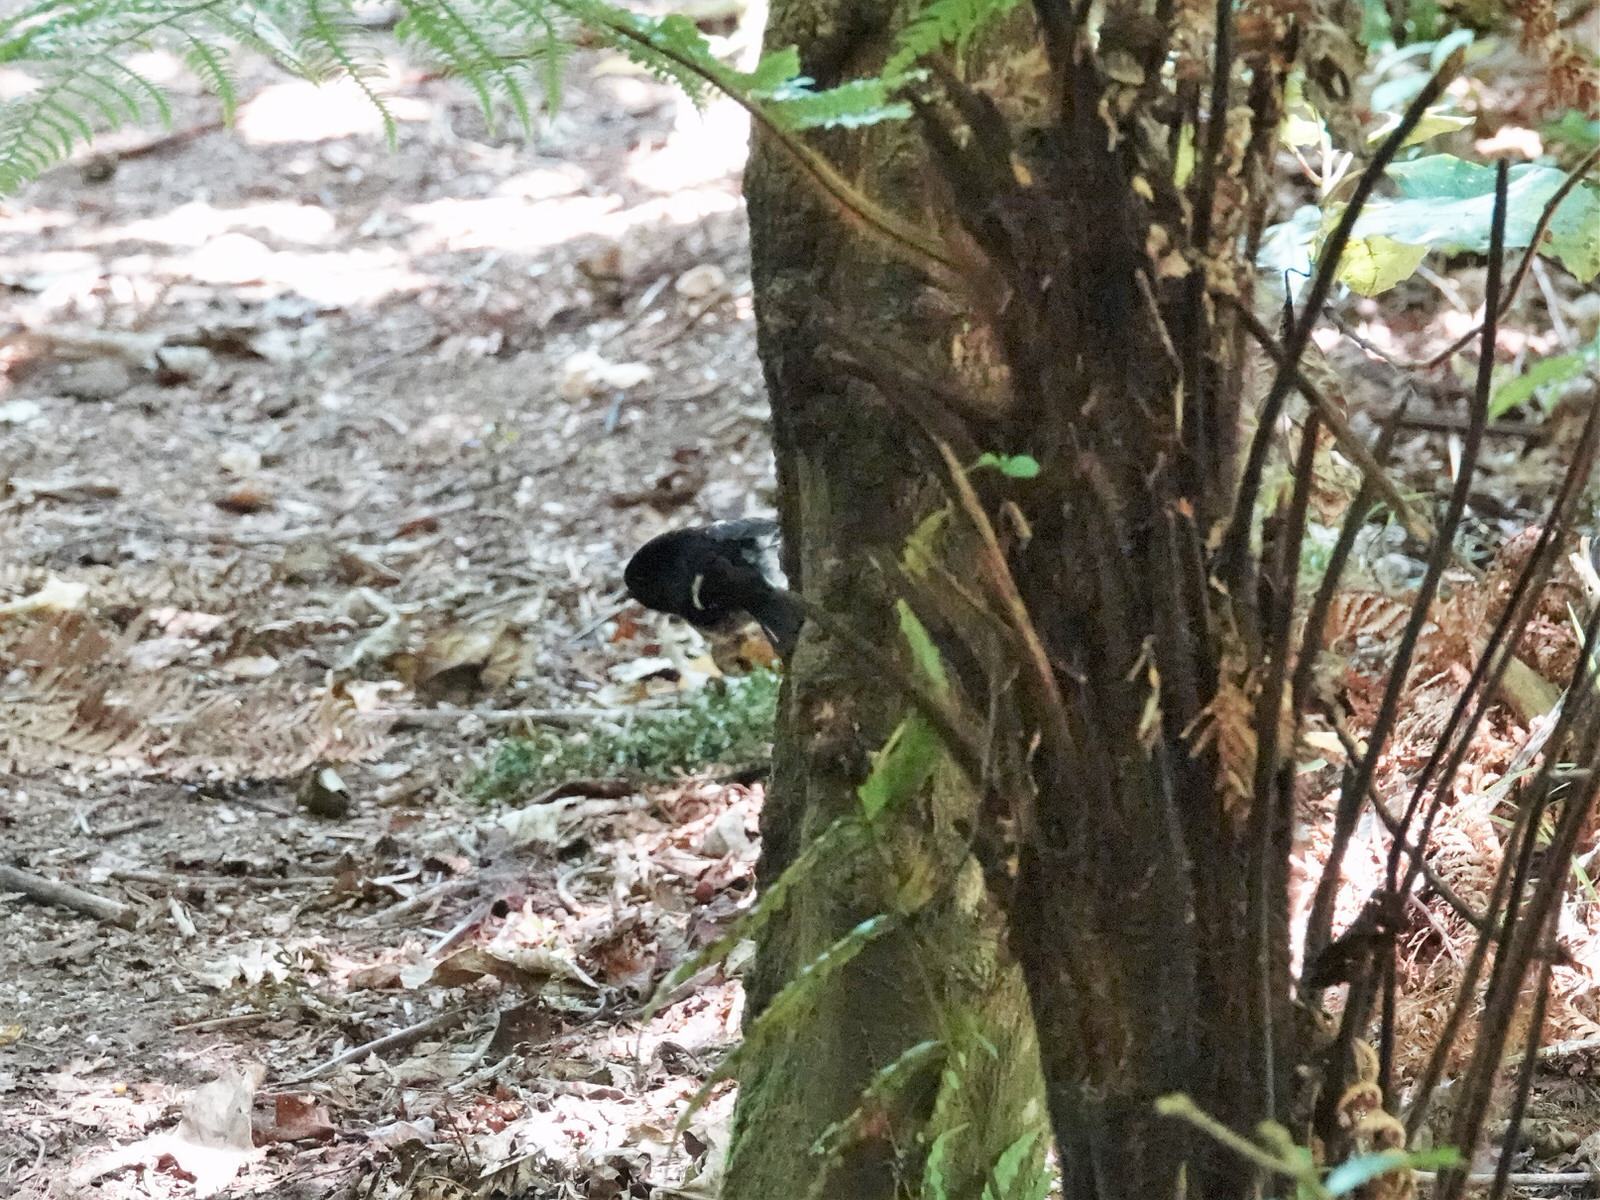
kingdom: Animalia
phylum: Chordata
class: Aves
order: Passeriformes
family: Petroicidae
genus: Petroica
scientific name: Petroica macrocephala
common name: Tomtit
